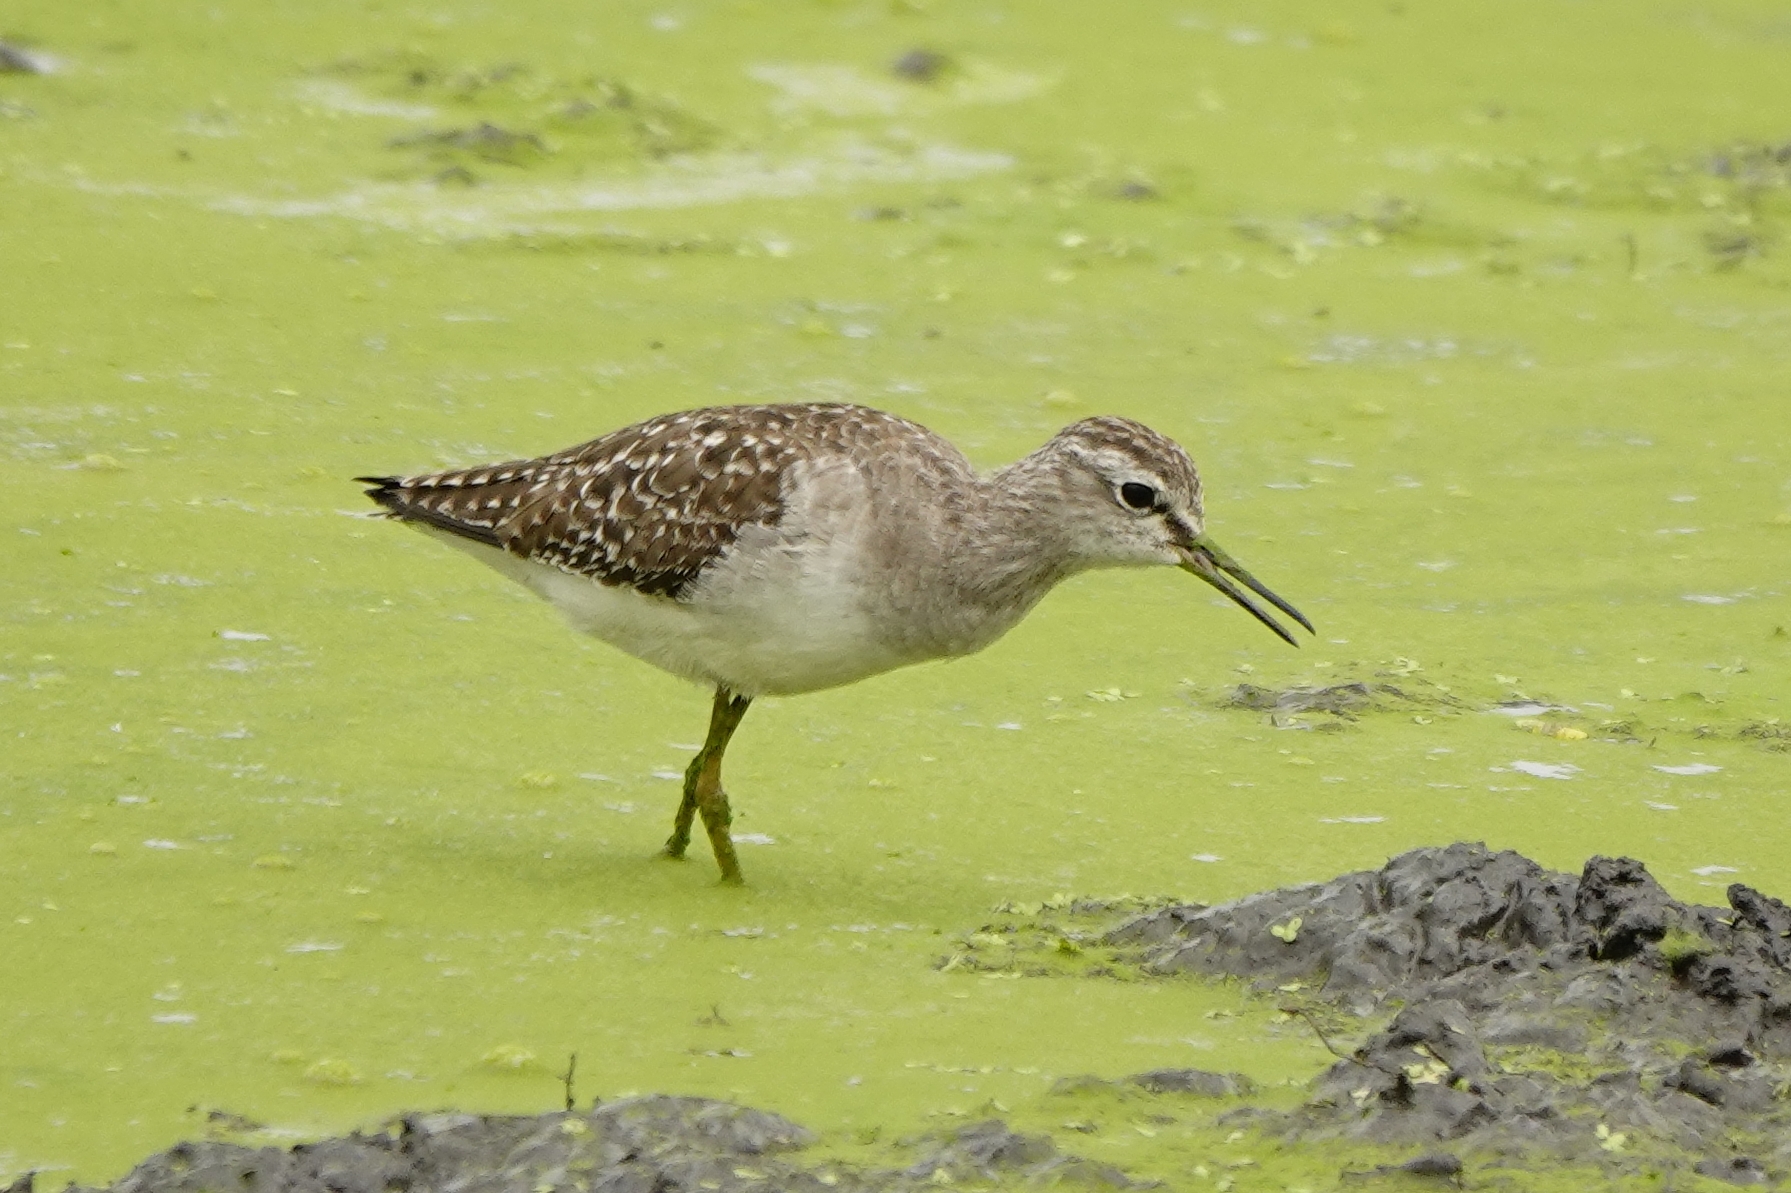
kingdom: Animalia
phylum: Chordata
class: Aves
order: Charadriiformes
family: Scolopacidae
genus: Tringa
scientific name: Tringa glareola
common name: Wood sandpiper
